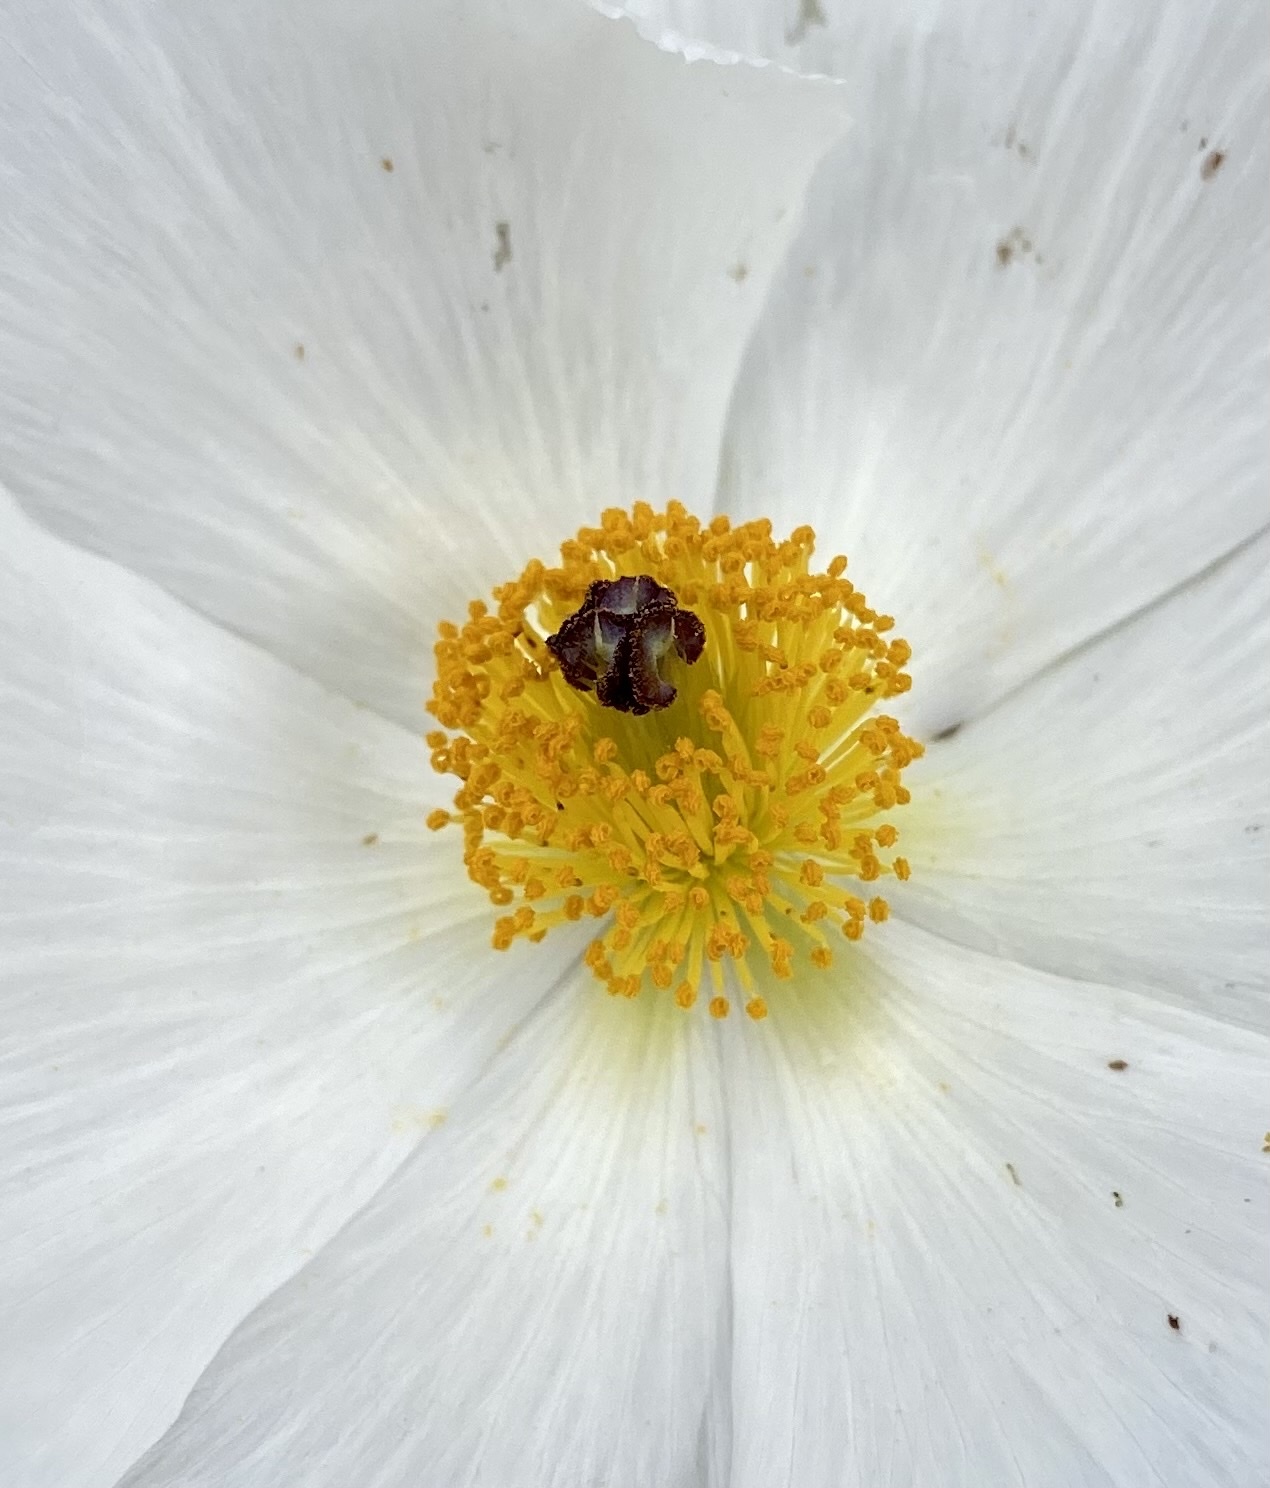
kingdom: Plantae
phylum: Tracheophyta
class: Magnoliopsida
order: Ranunculales
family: Papaveraceae
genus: Argemone
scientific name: Argemone munita
